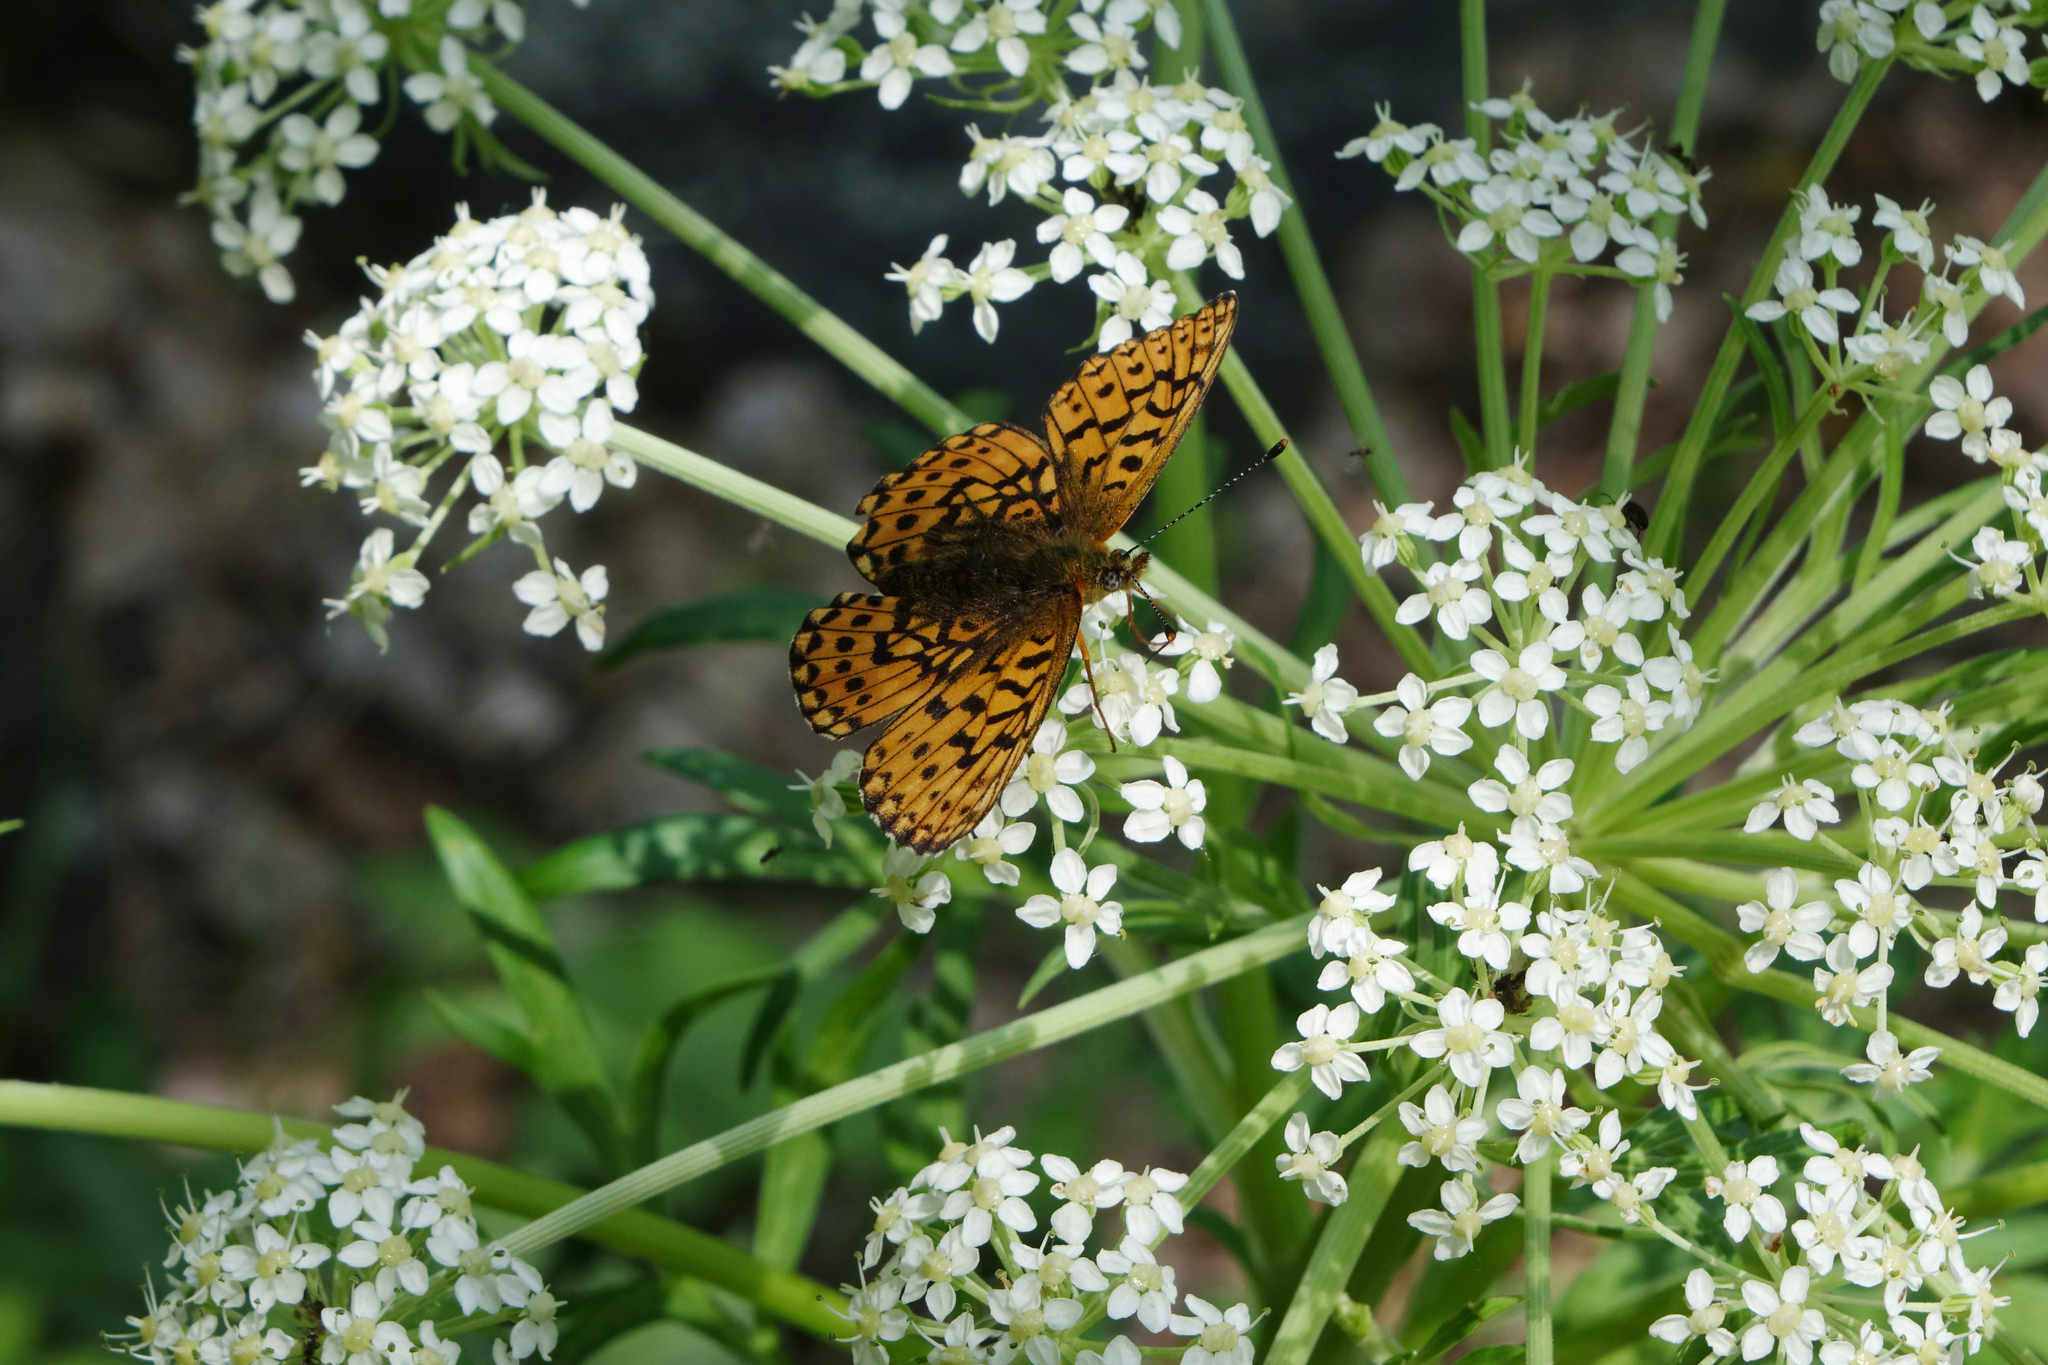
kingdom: Animalia
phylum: Arthropoda
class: Insecta
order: Lepidoptera
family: Nymphalidae
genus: Clossiana
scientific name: Clossiana oscarus
